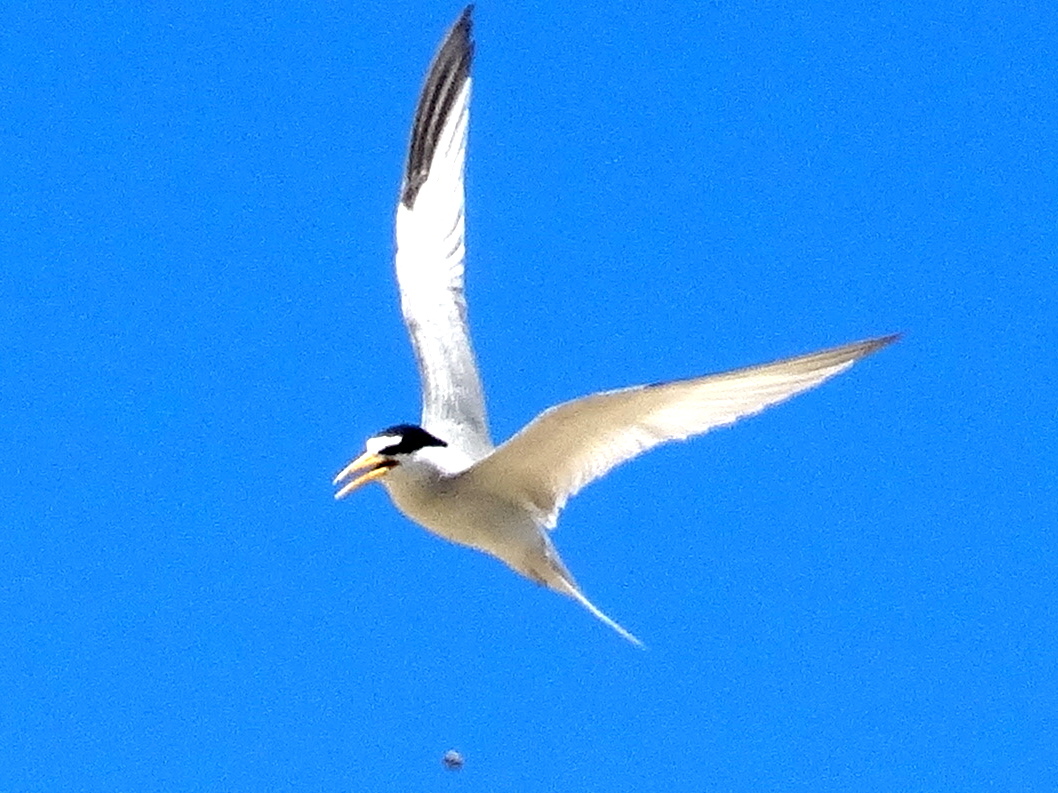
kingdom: Animalia
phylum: Chordata
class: Aves
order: Charadriiformes
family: Laridae
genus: Sternula
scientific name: Sternula antillarum
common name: Least tern
